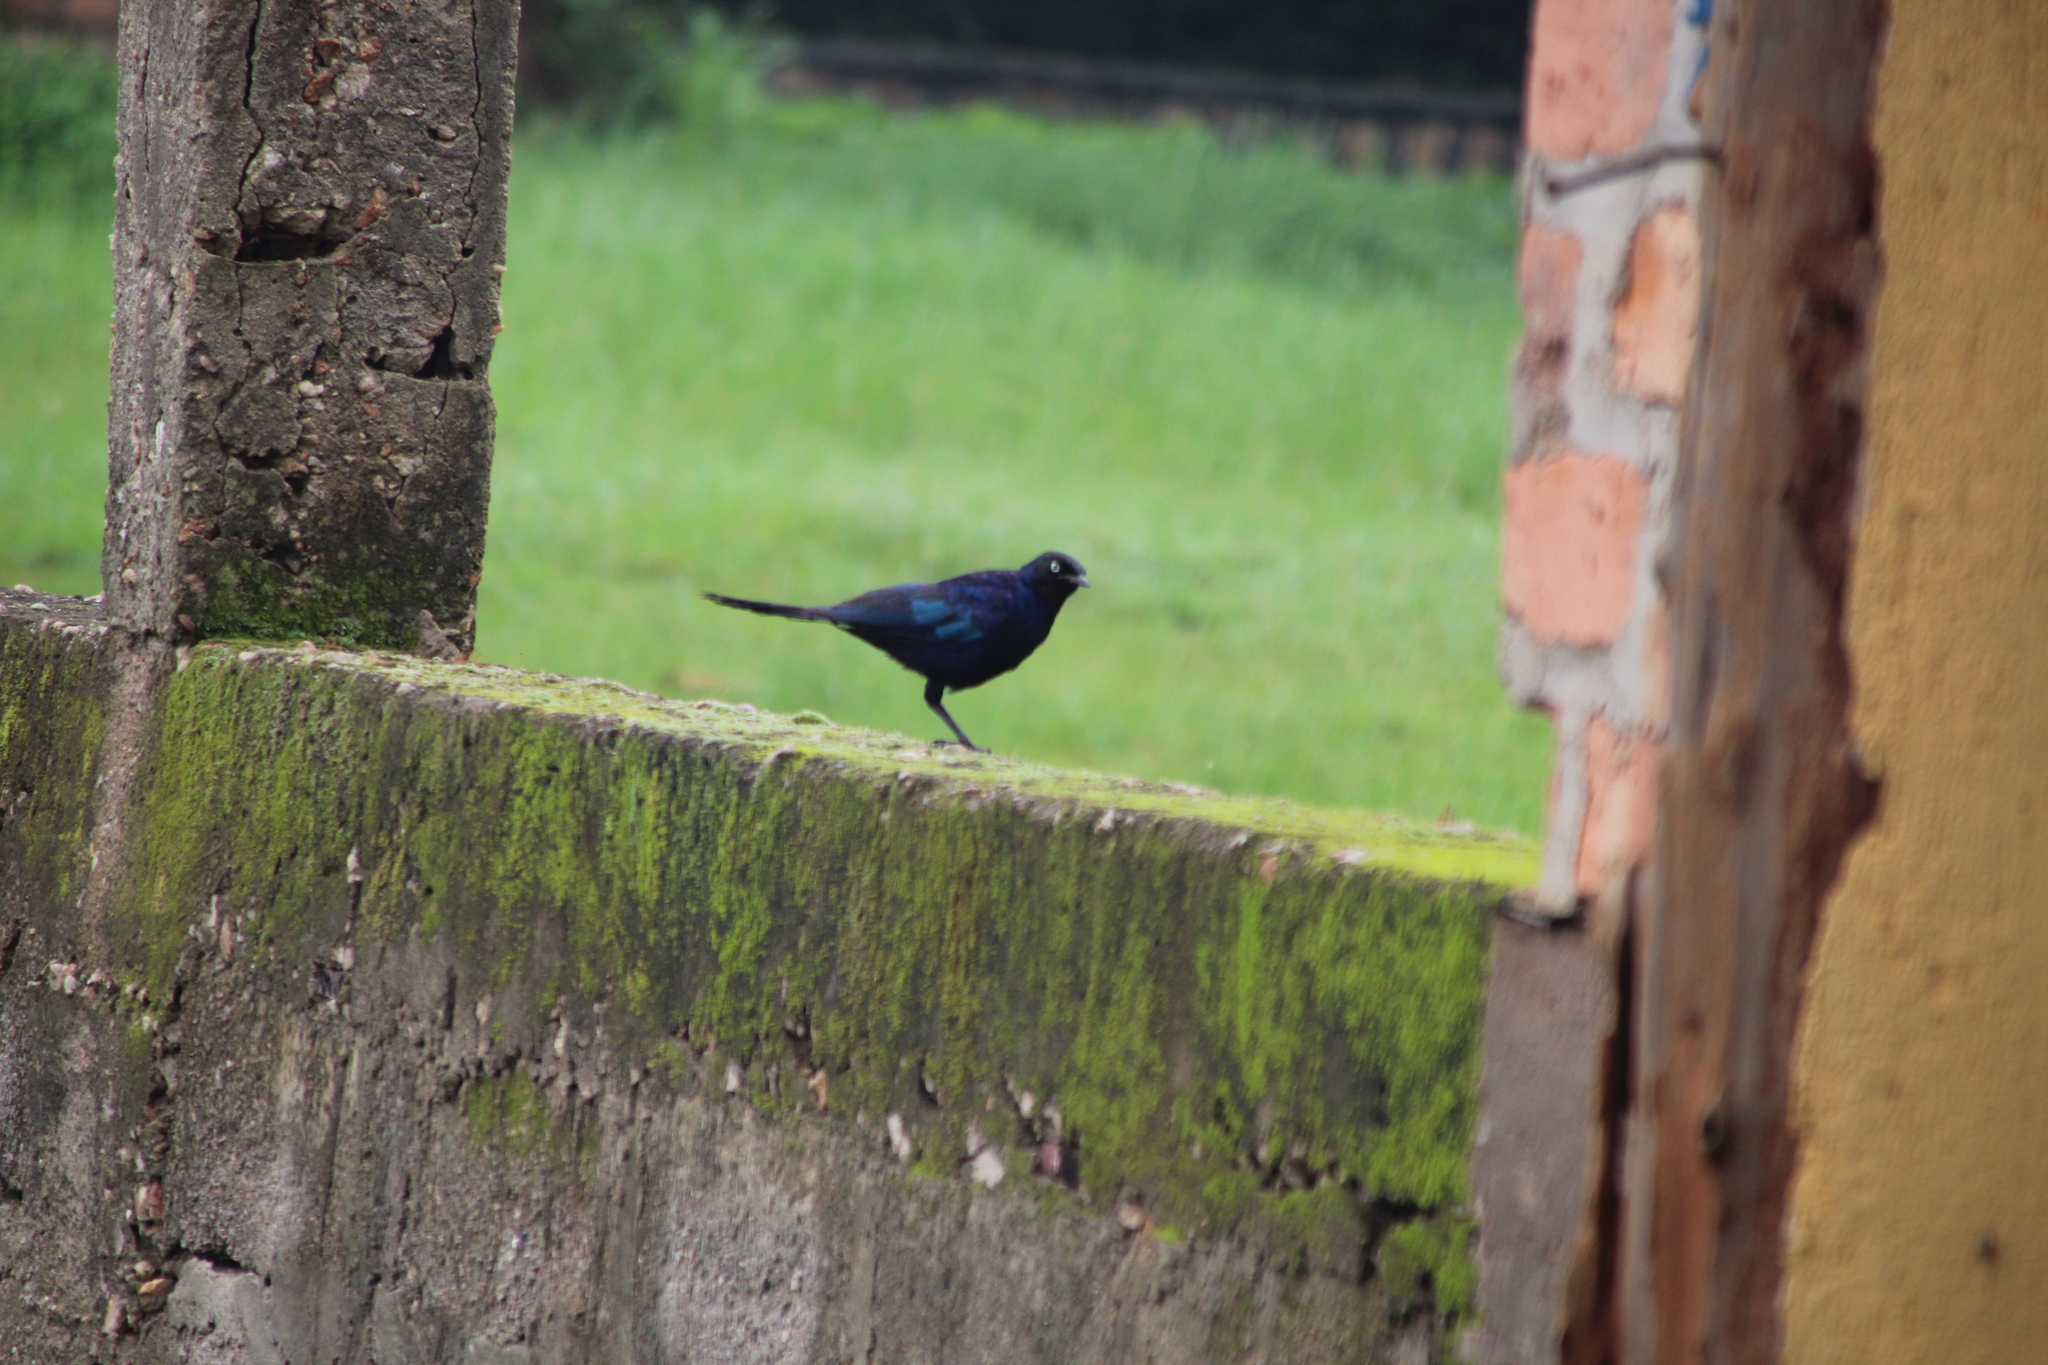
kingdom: Animalia
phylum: Chordata
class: Aves
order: Passeriformes
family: Sturnidae
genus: Lamprotornis
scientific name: Lamprotornis purpuroptera
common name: Rüppell's starling
